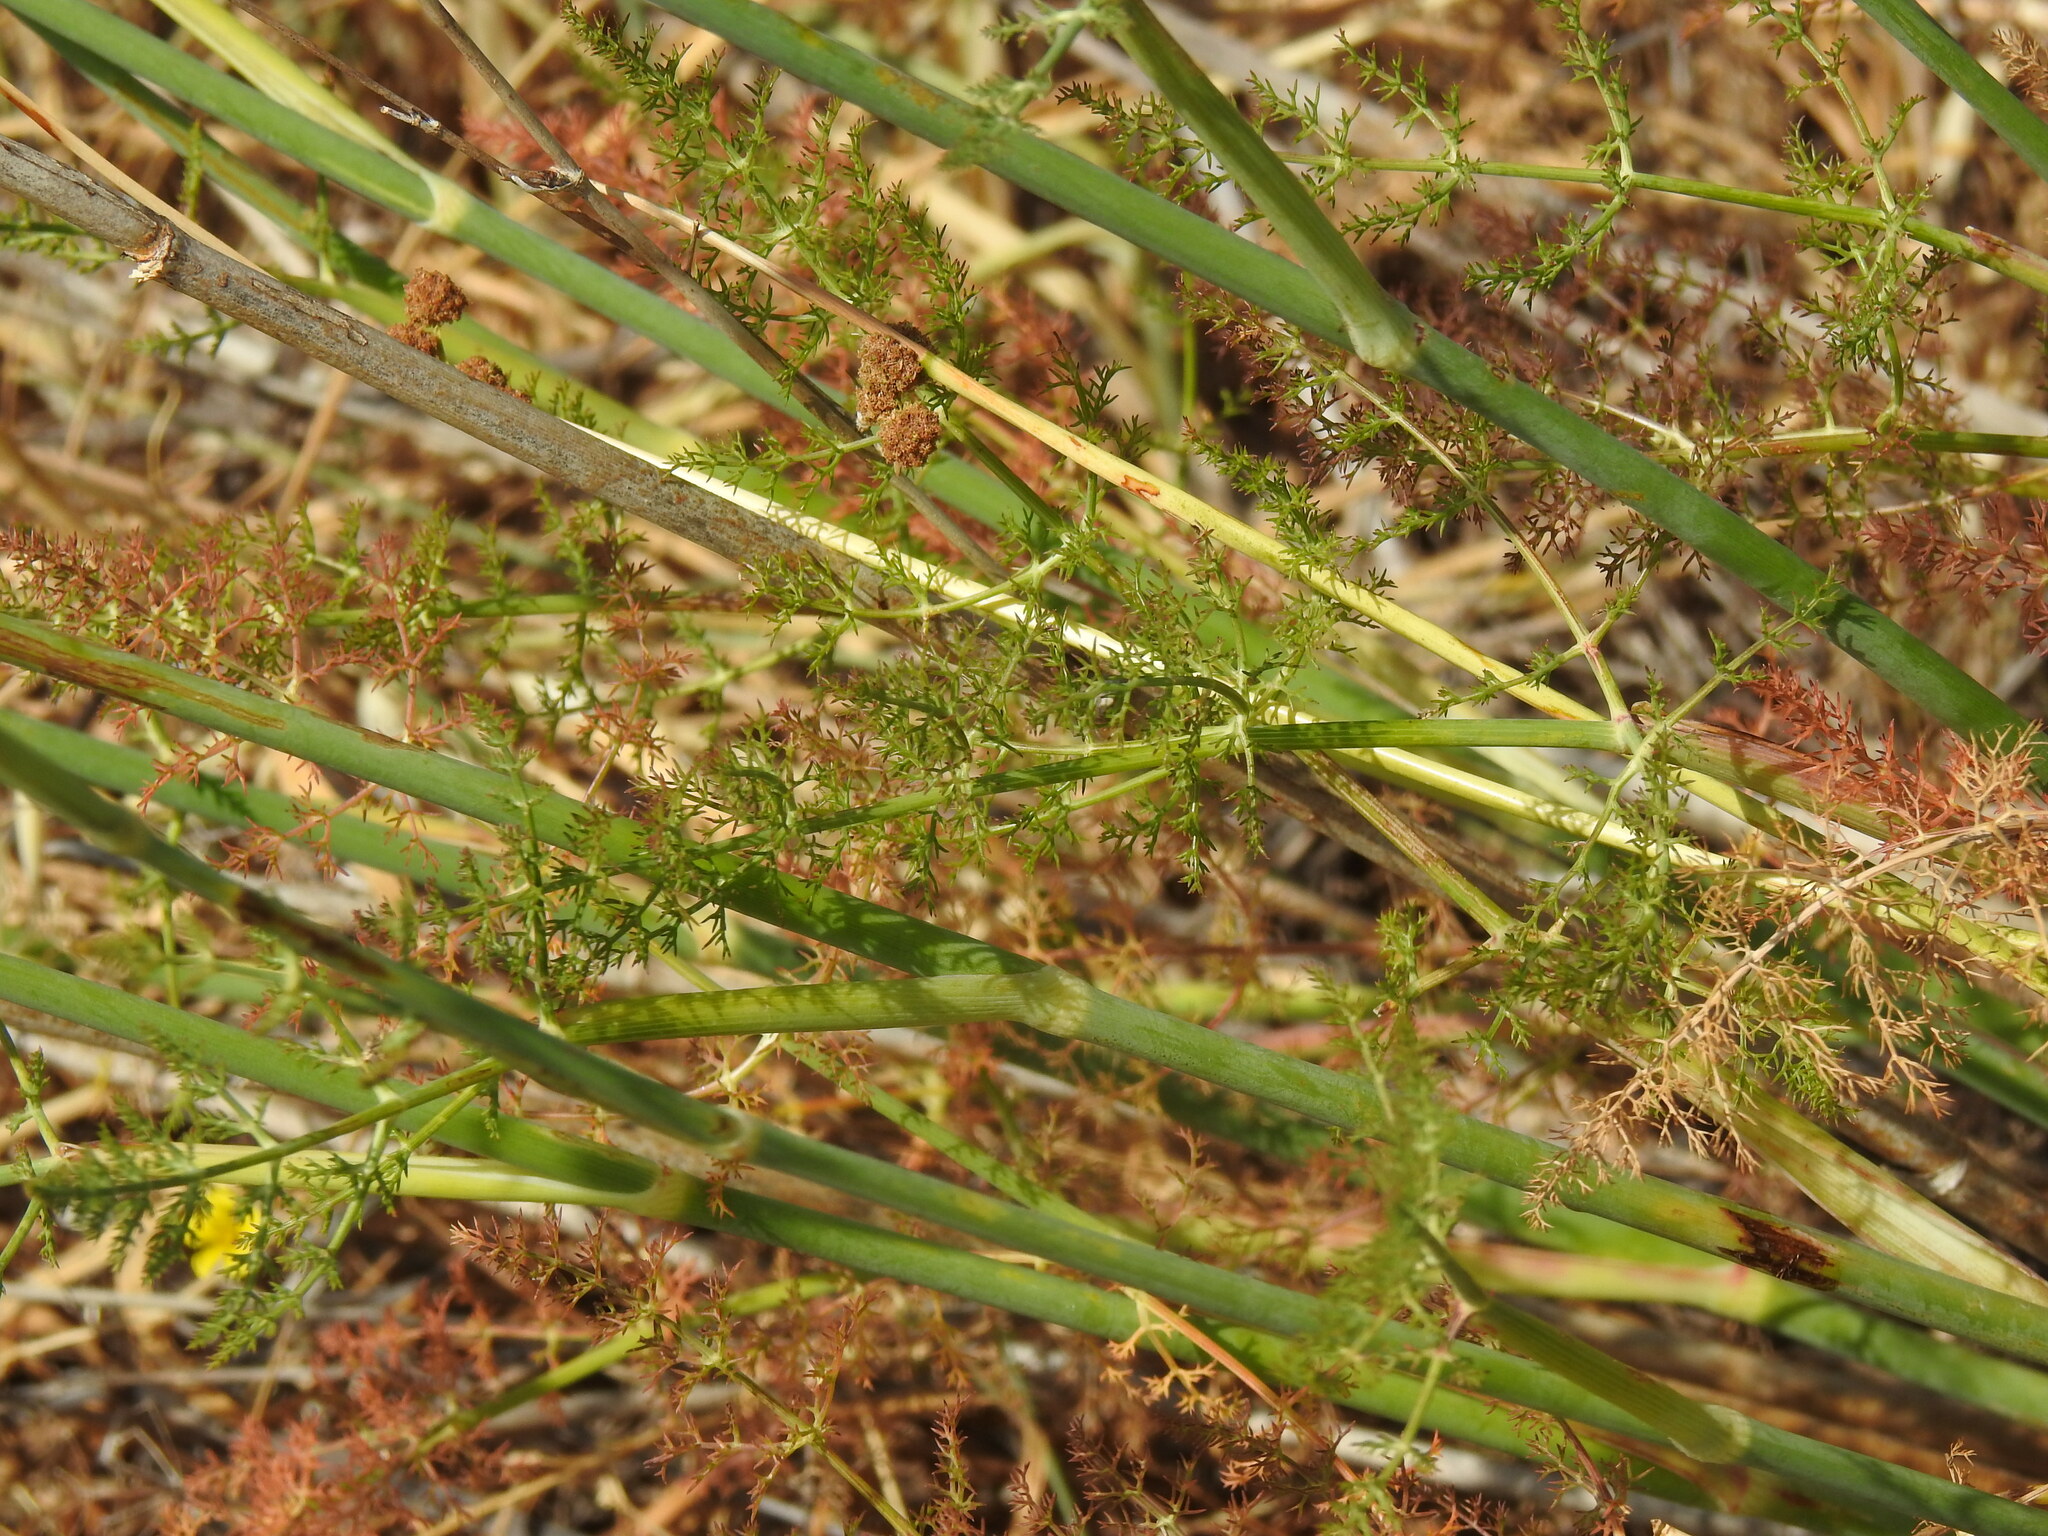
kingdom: Plantae
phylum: Tracheophyta
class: Magnoliopsida
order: Apiales
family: Apiaceae
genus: Foeniculum
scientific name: Foeniculum vulgare
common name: Fennel
